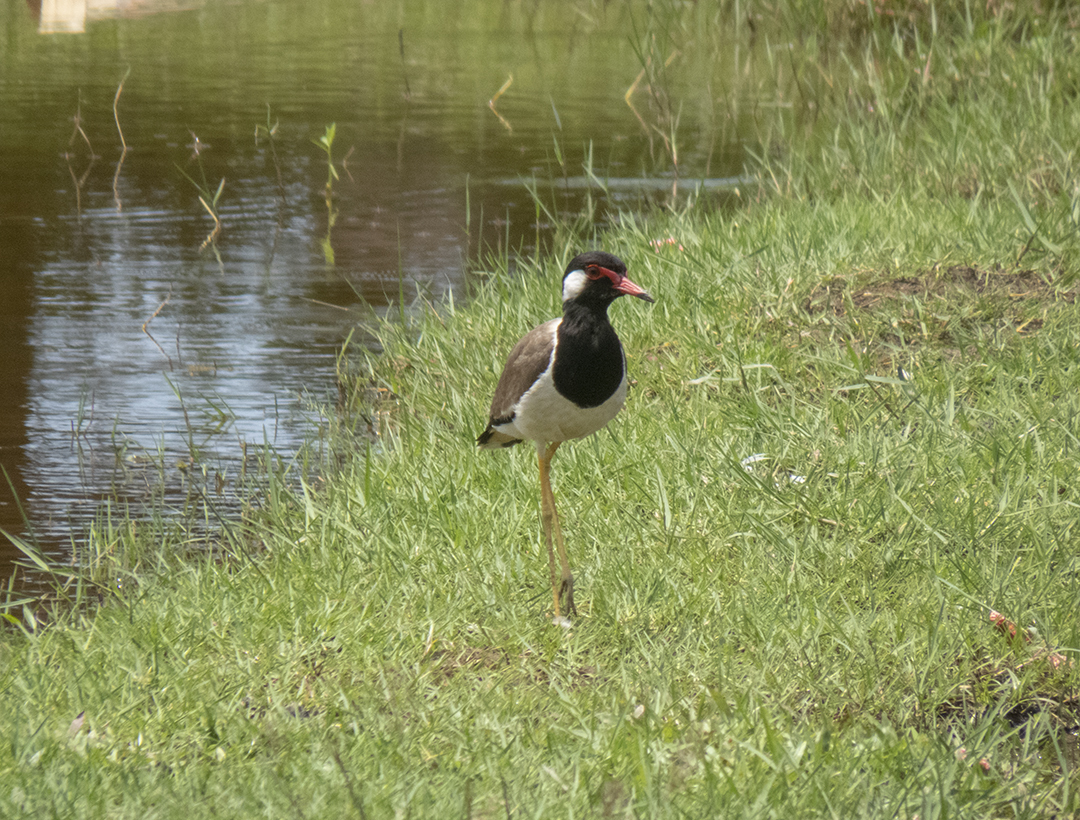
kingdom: Animalia
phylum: Chordata
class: Aves
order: Charadriiformes
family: Charadriidae
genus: Vanellus
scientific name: Vanellus indicus
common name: Red-wattled lapwing
